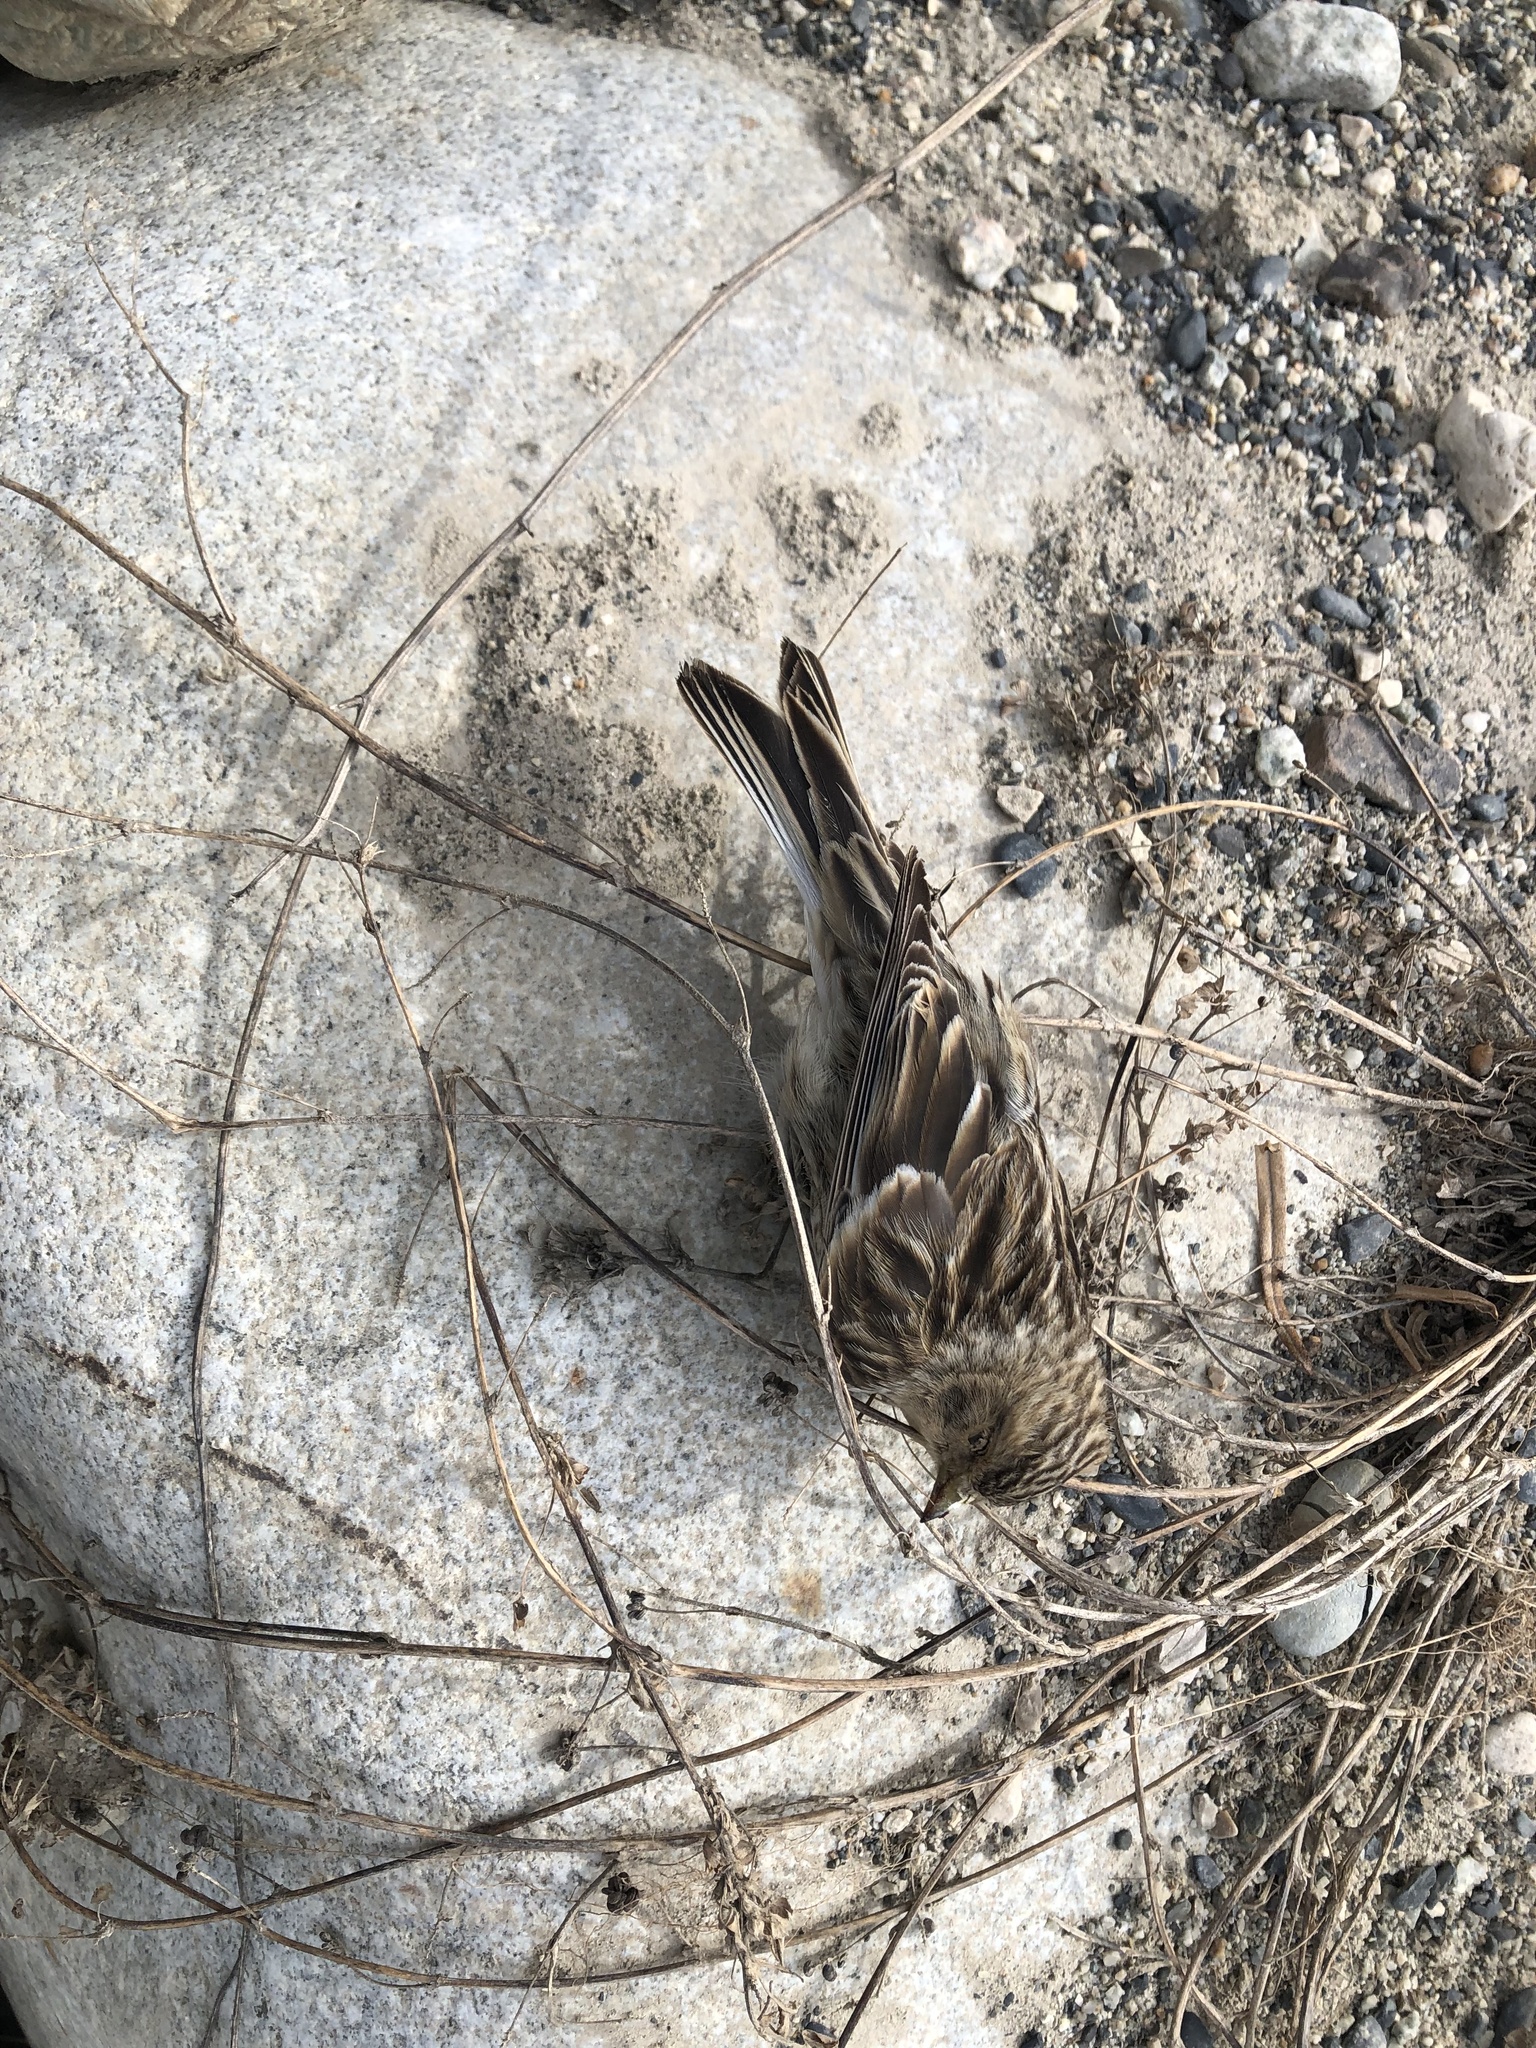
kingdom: Animalia
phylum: Chordata
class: Aves
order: Passeriformes
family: Fringillidae
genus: Linaria
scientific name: Linaria flavirostris
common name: Twite
